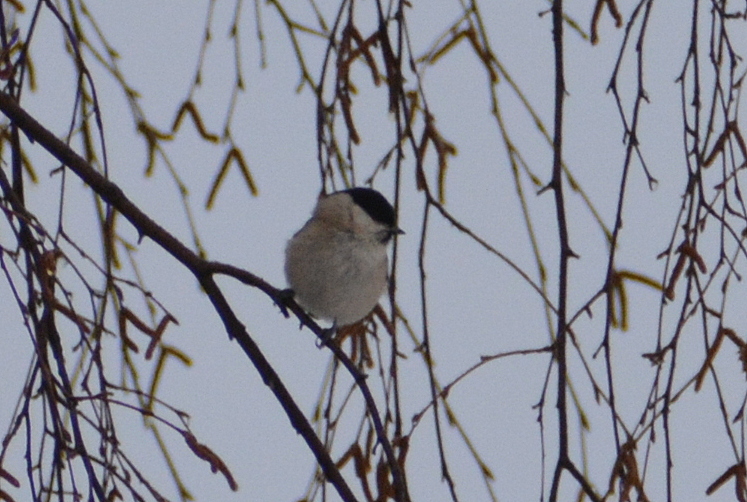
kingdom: Animalia
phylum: Chordata
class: Aves
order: Passeriformes
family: Paridae
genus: Poecile
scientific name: Poecile palustris
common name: Marsh tit
